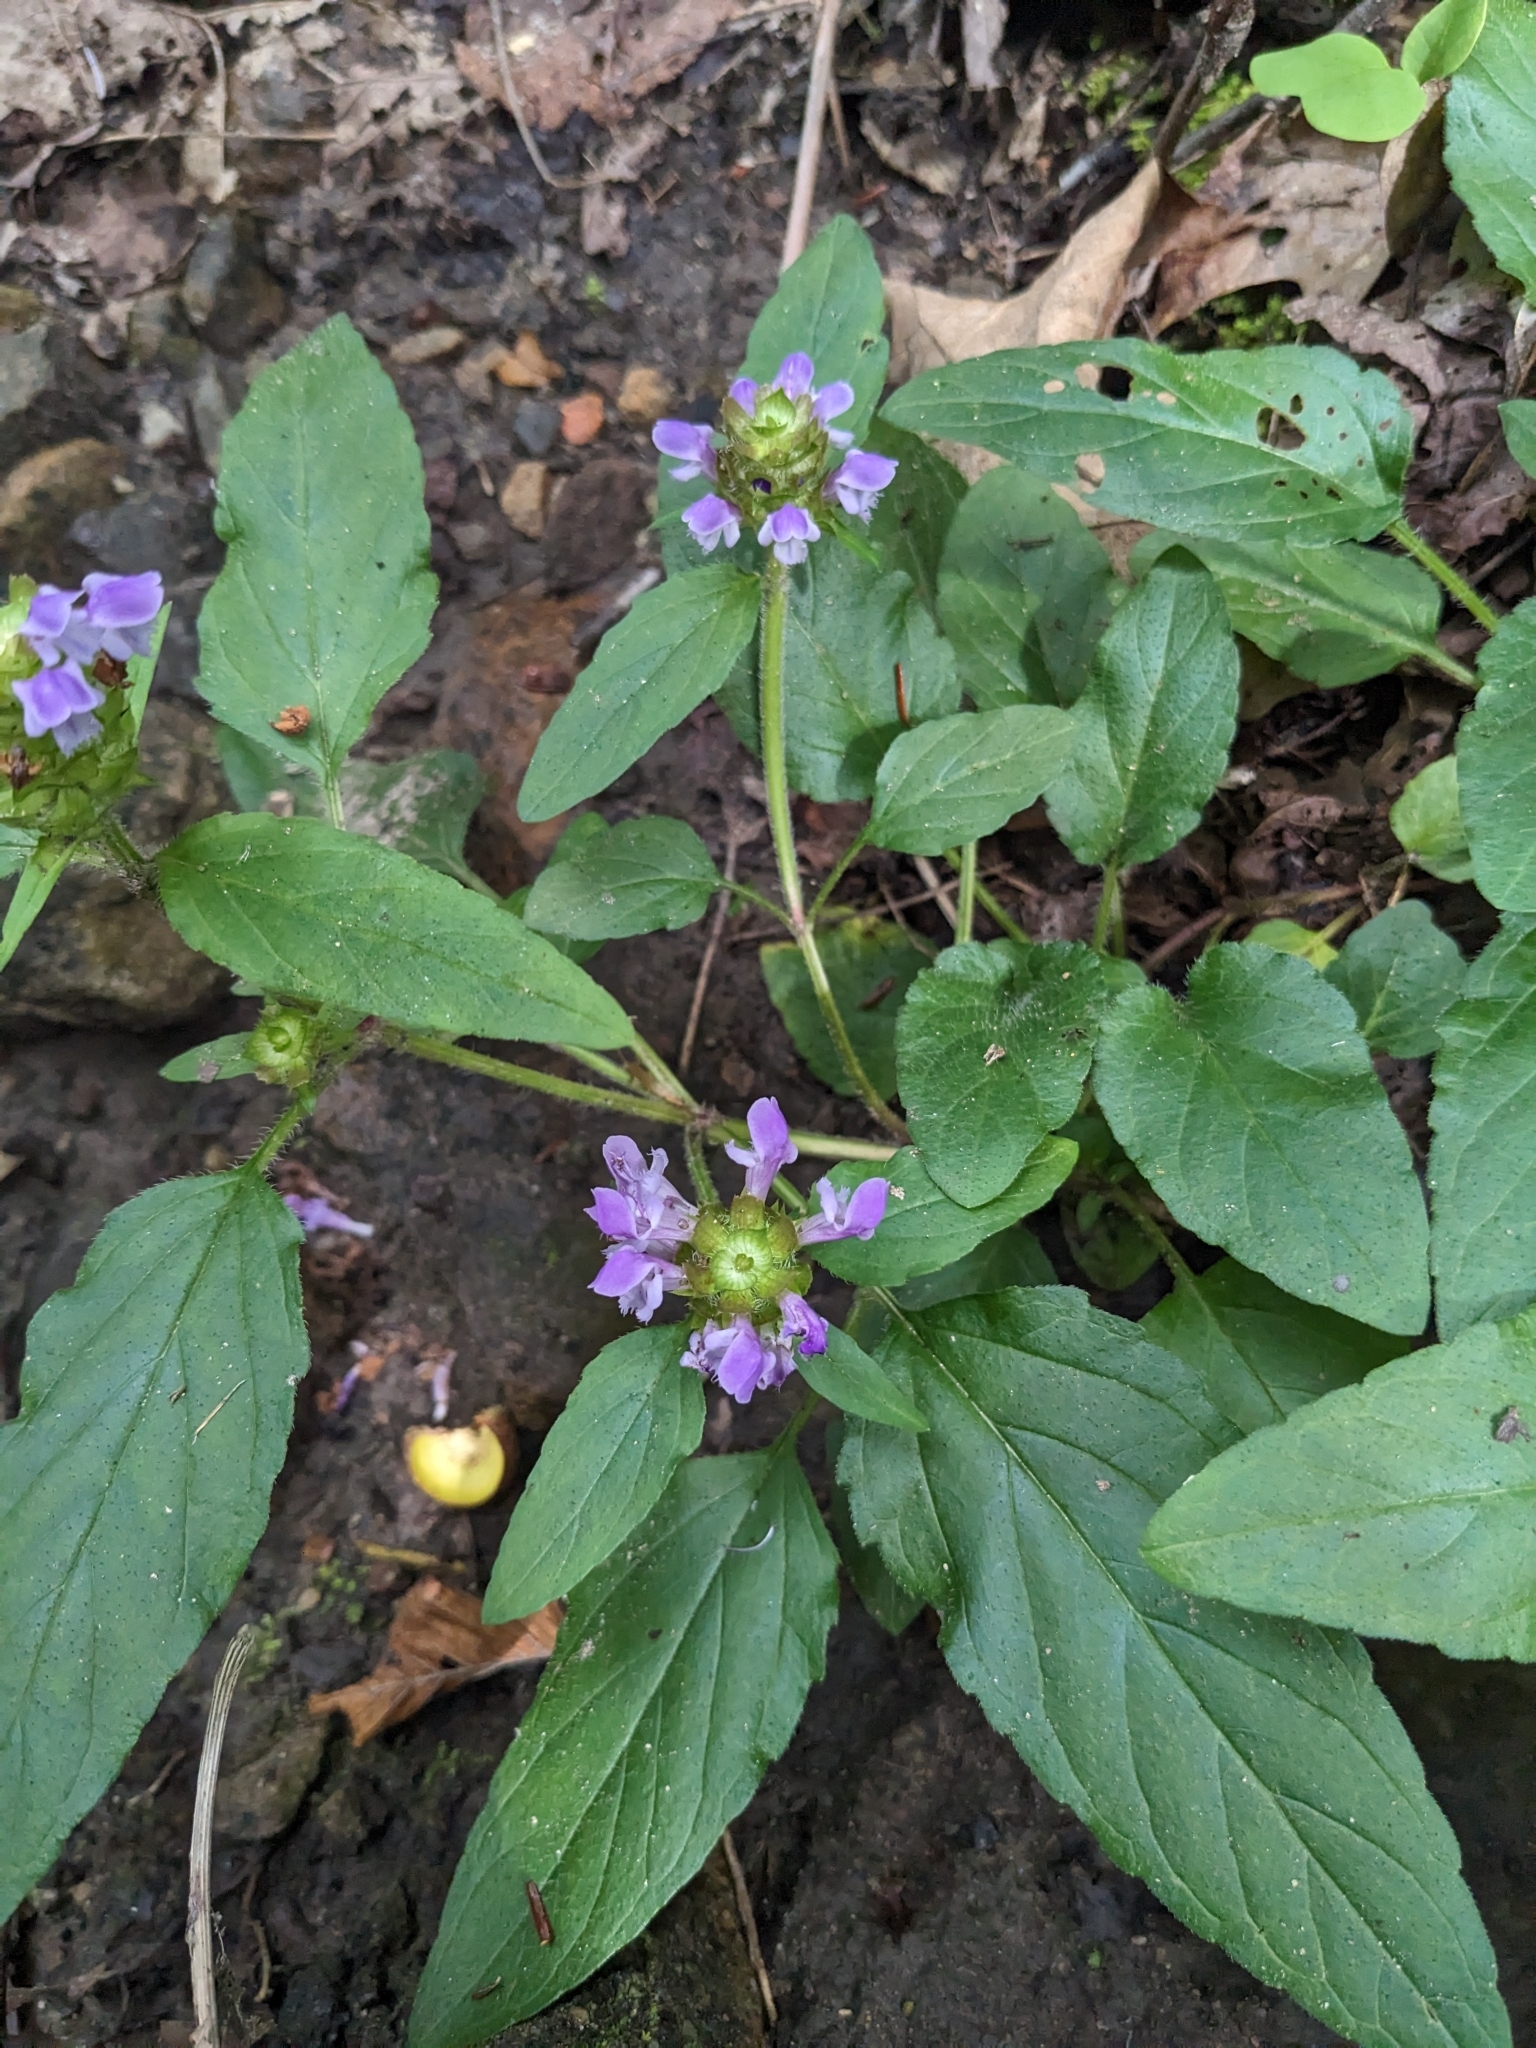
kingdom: Plantae
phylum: Tracheophyta
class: Magnoliopsida
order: Lamiales
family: Lamiaceae
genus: Prunella
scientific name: Prunella vulgaris
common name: Heal-all
